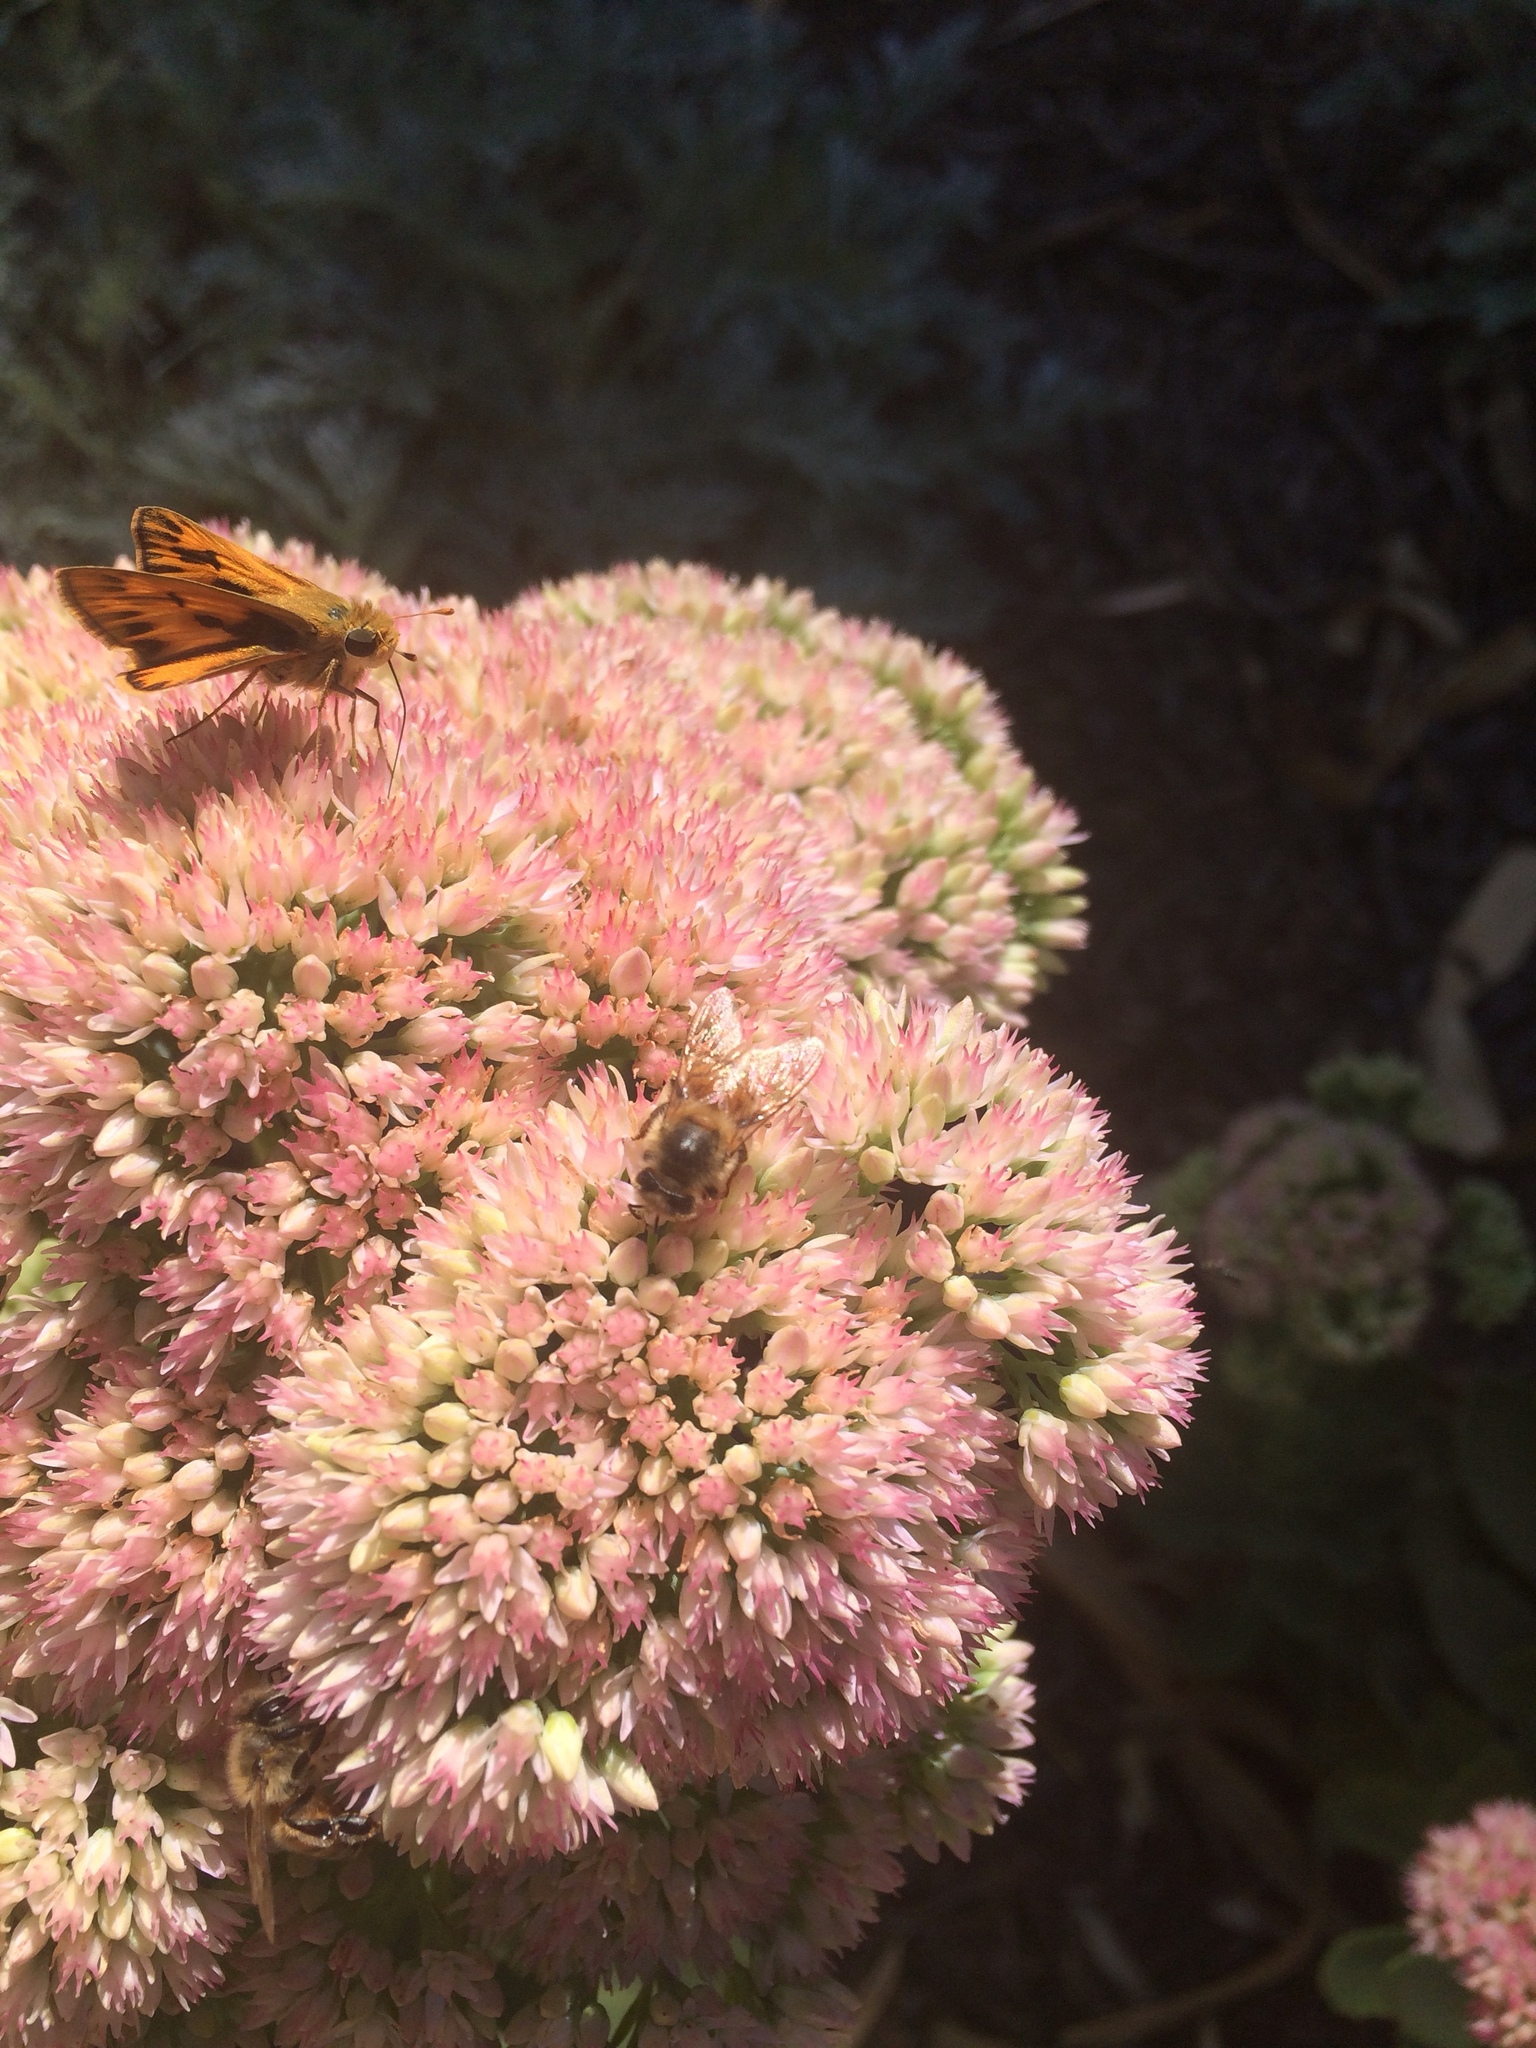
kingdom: Animalia
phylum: Arthropoda
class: Insecta
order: Hymenoptera
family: Apidae
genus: Apis
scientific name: Apis mellifera
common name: Honey bee
